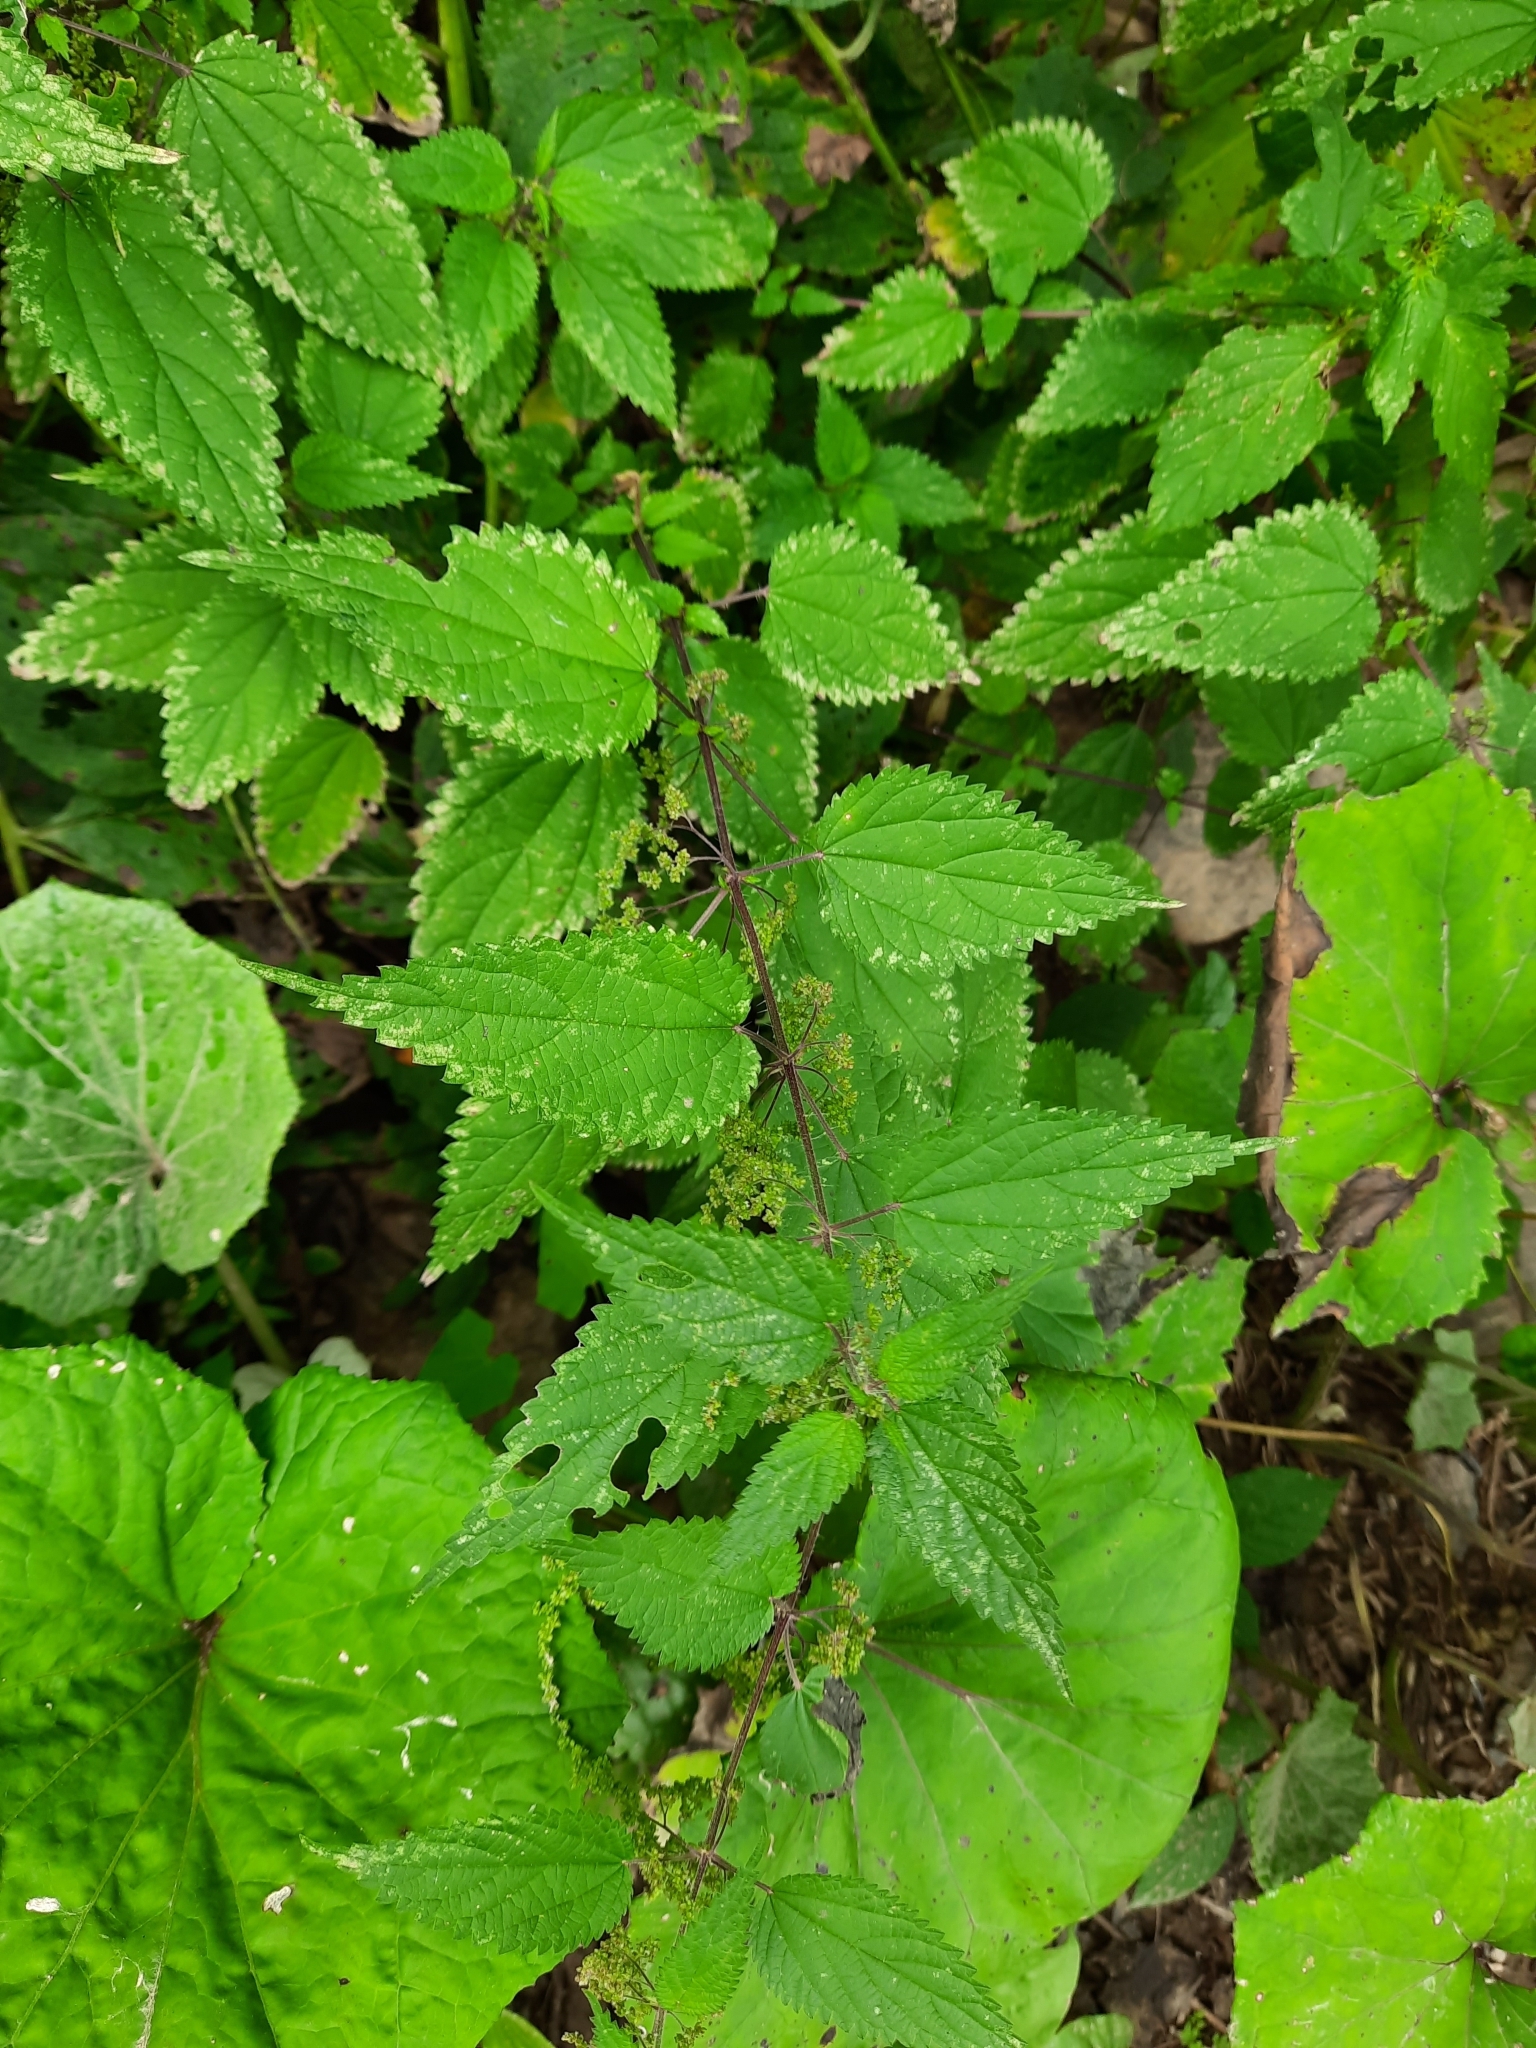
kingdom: Plantae
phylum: Tracheophyta
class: Magnoliopsida
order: Rosales
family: Urticaceae
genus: Urtica
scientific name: Urtica dioica
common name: Common nettle
